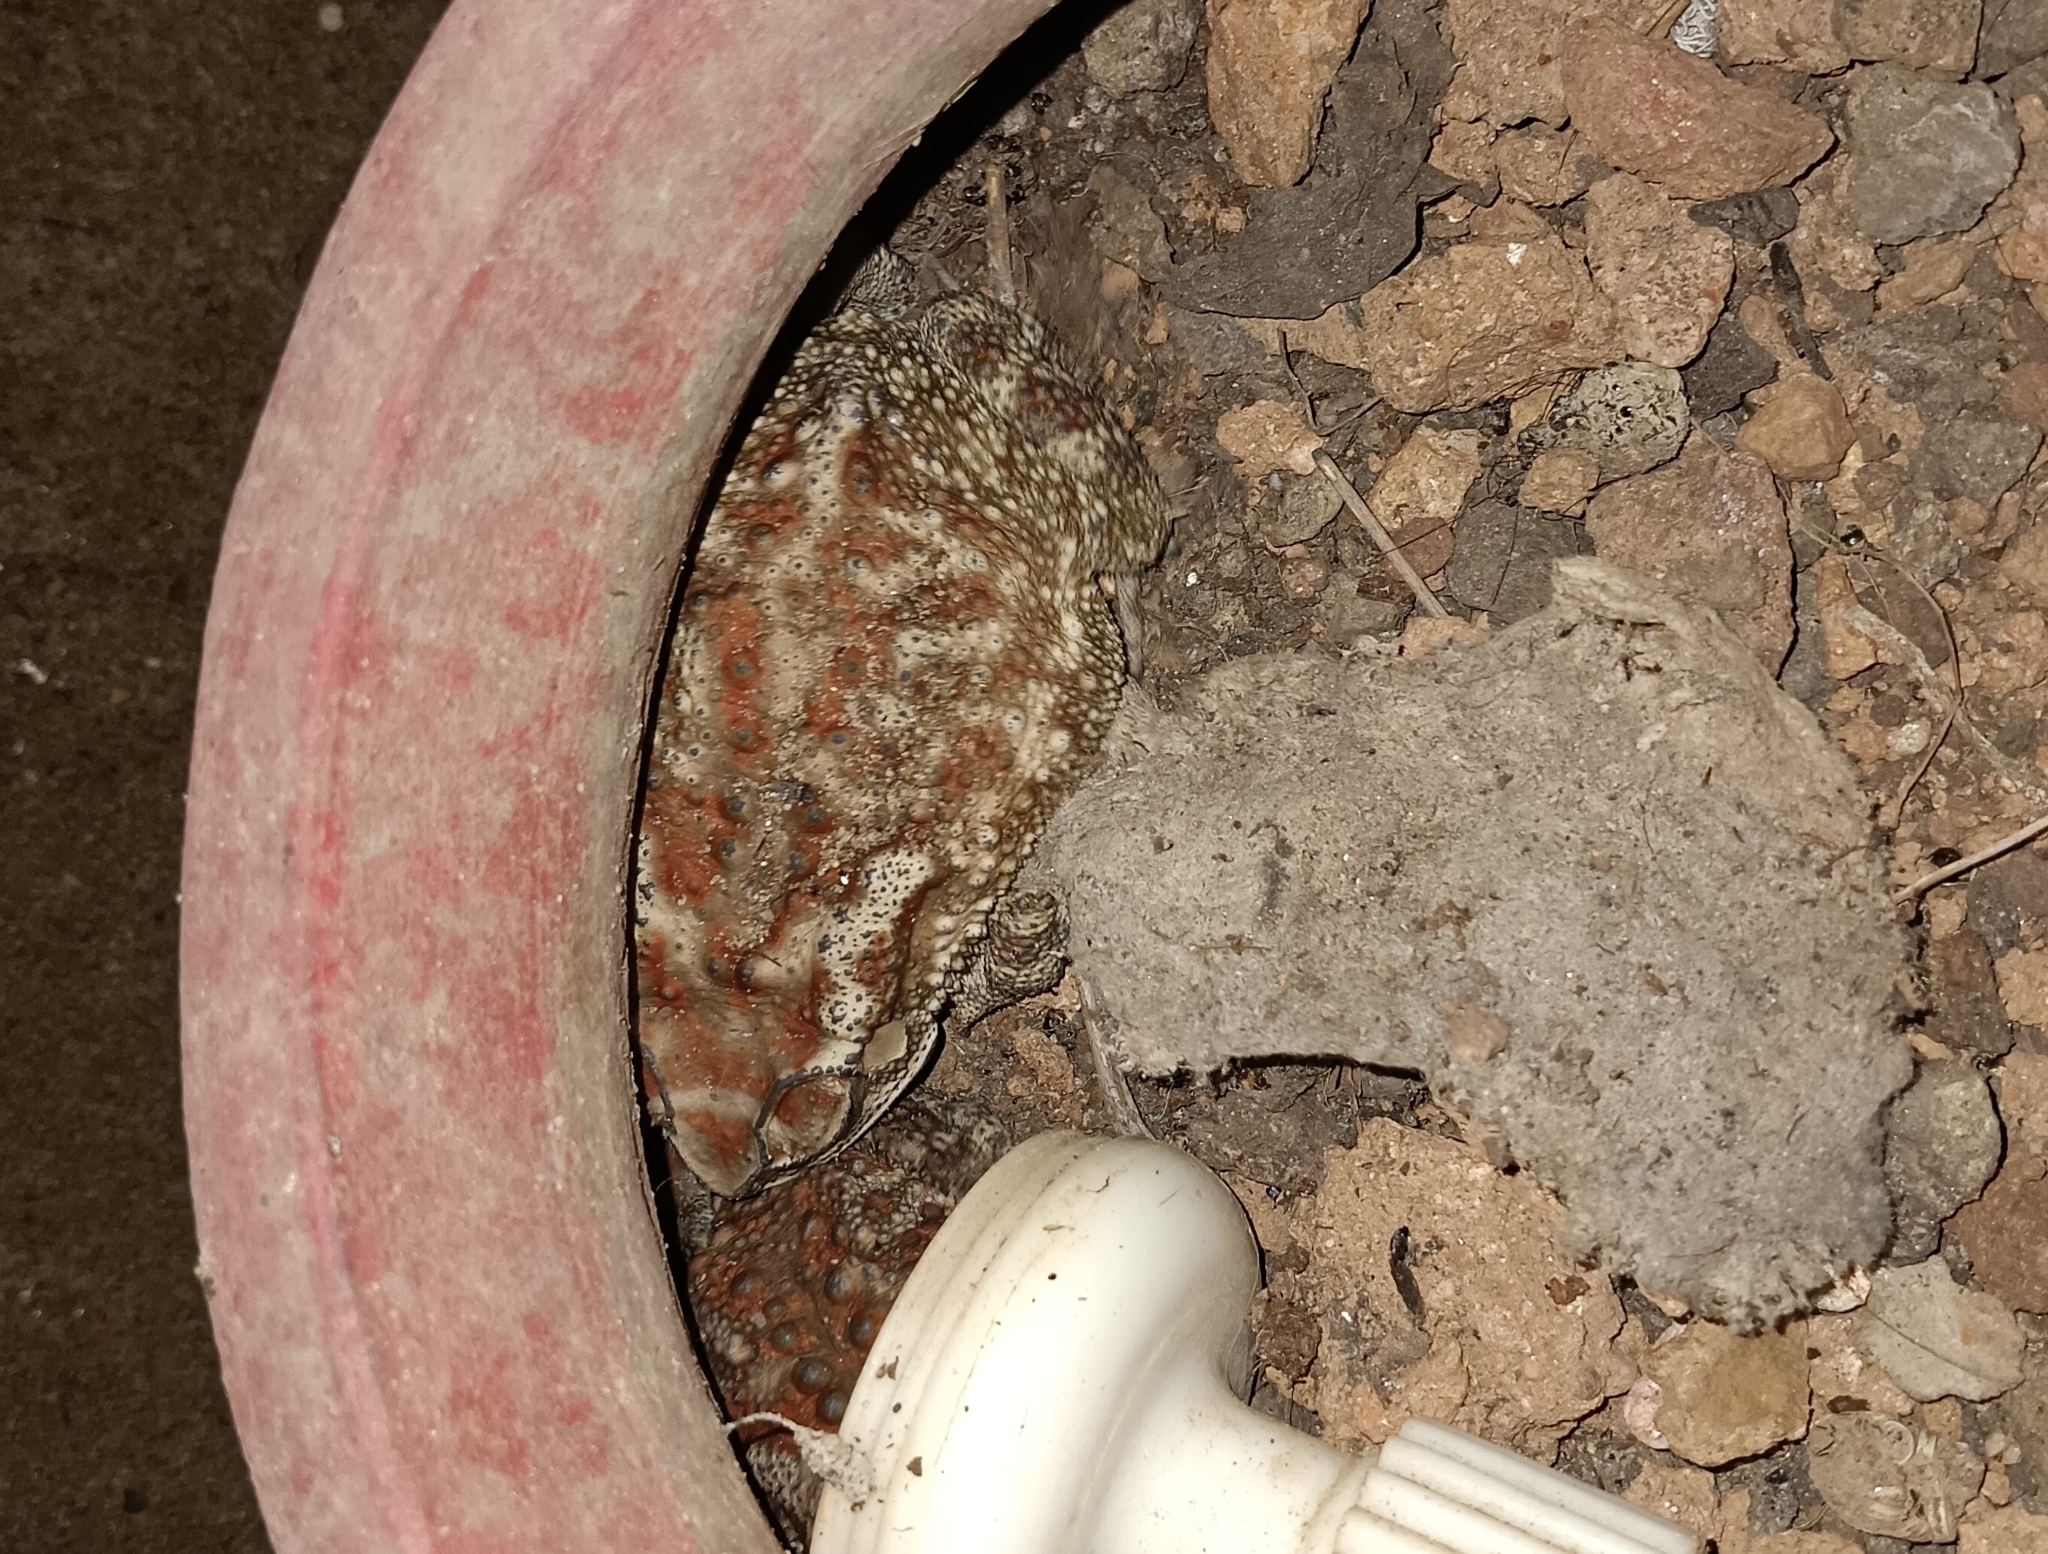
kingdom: Animalia
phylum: Chordata
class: Amphibia
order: Anura
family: Bufonidae
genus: Duttaphrynus
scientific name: Duttaphrynus melanostictus
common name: Common sunda toad
